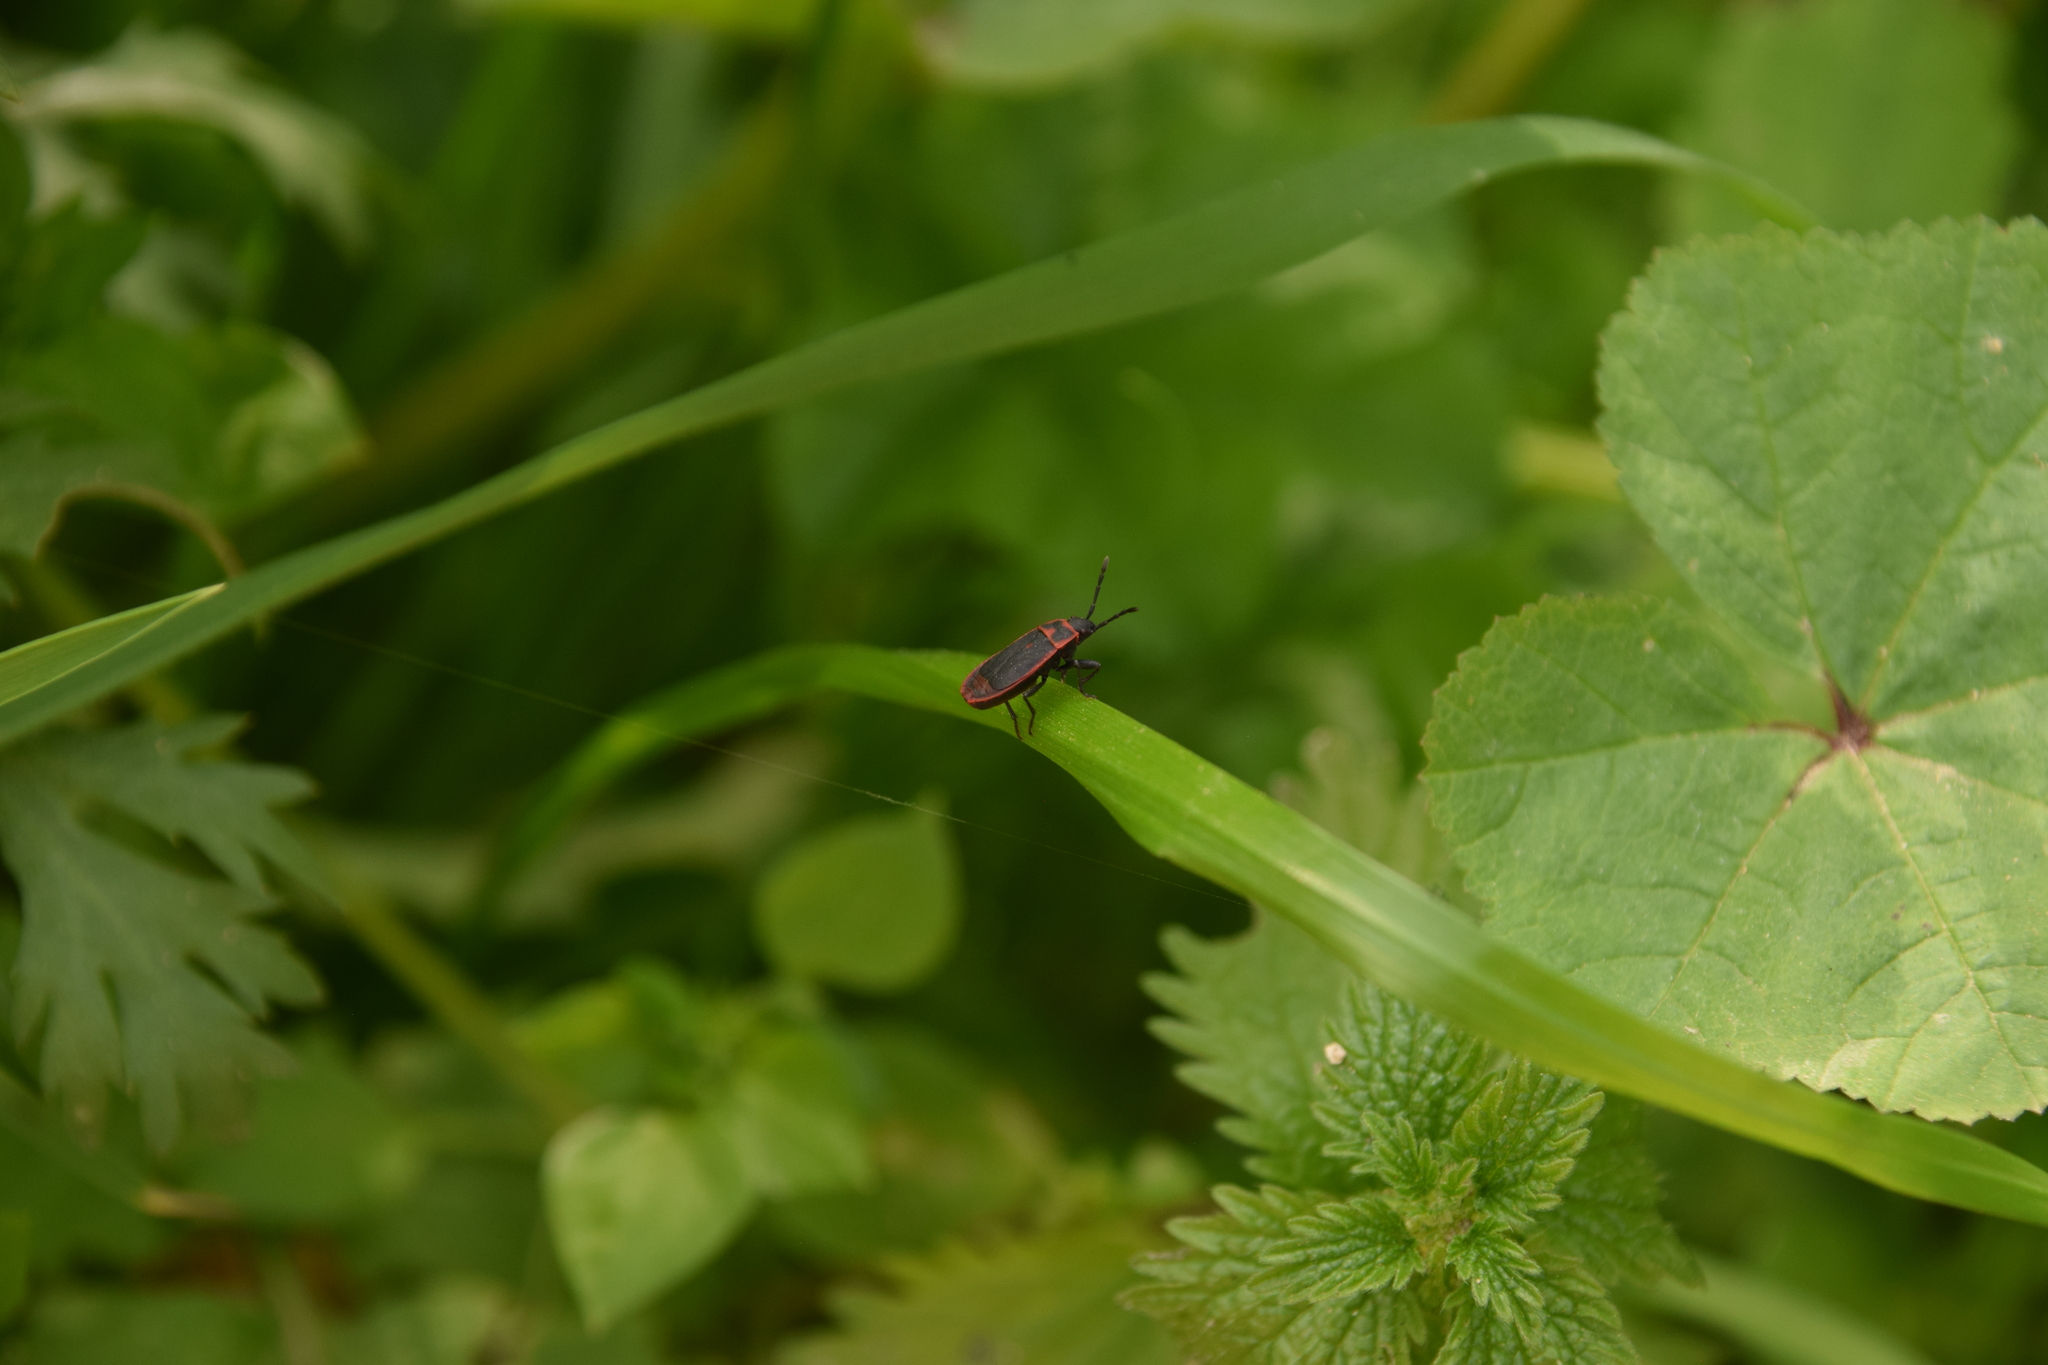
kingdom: Animalia
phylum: Arthropoda
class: Insecta
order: Hemiptera
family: Pyrrhocoridae
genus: Scantius
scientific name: Scantius forsteri
